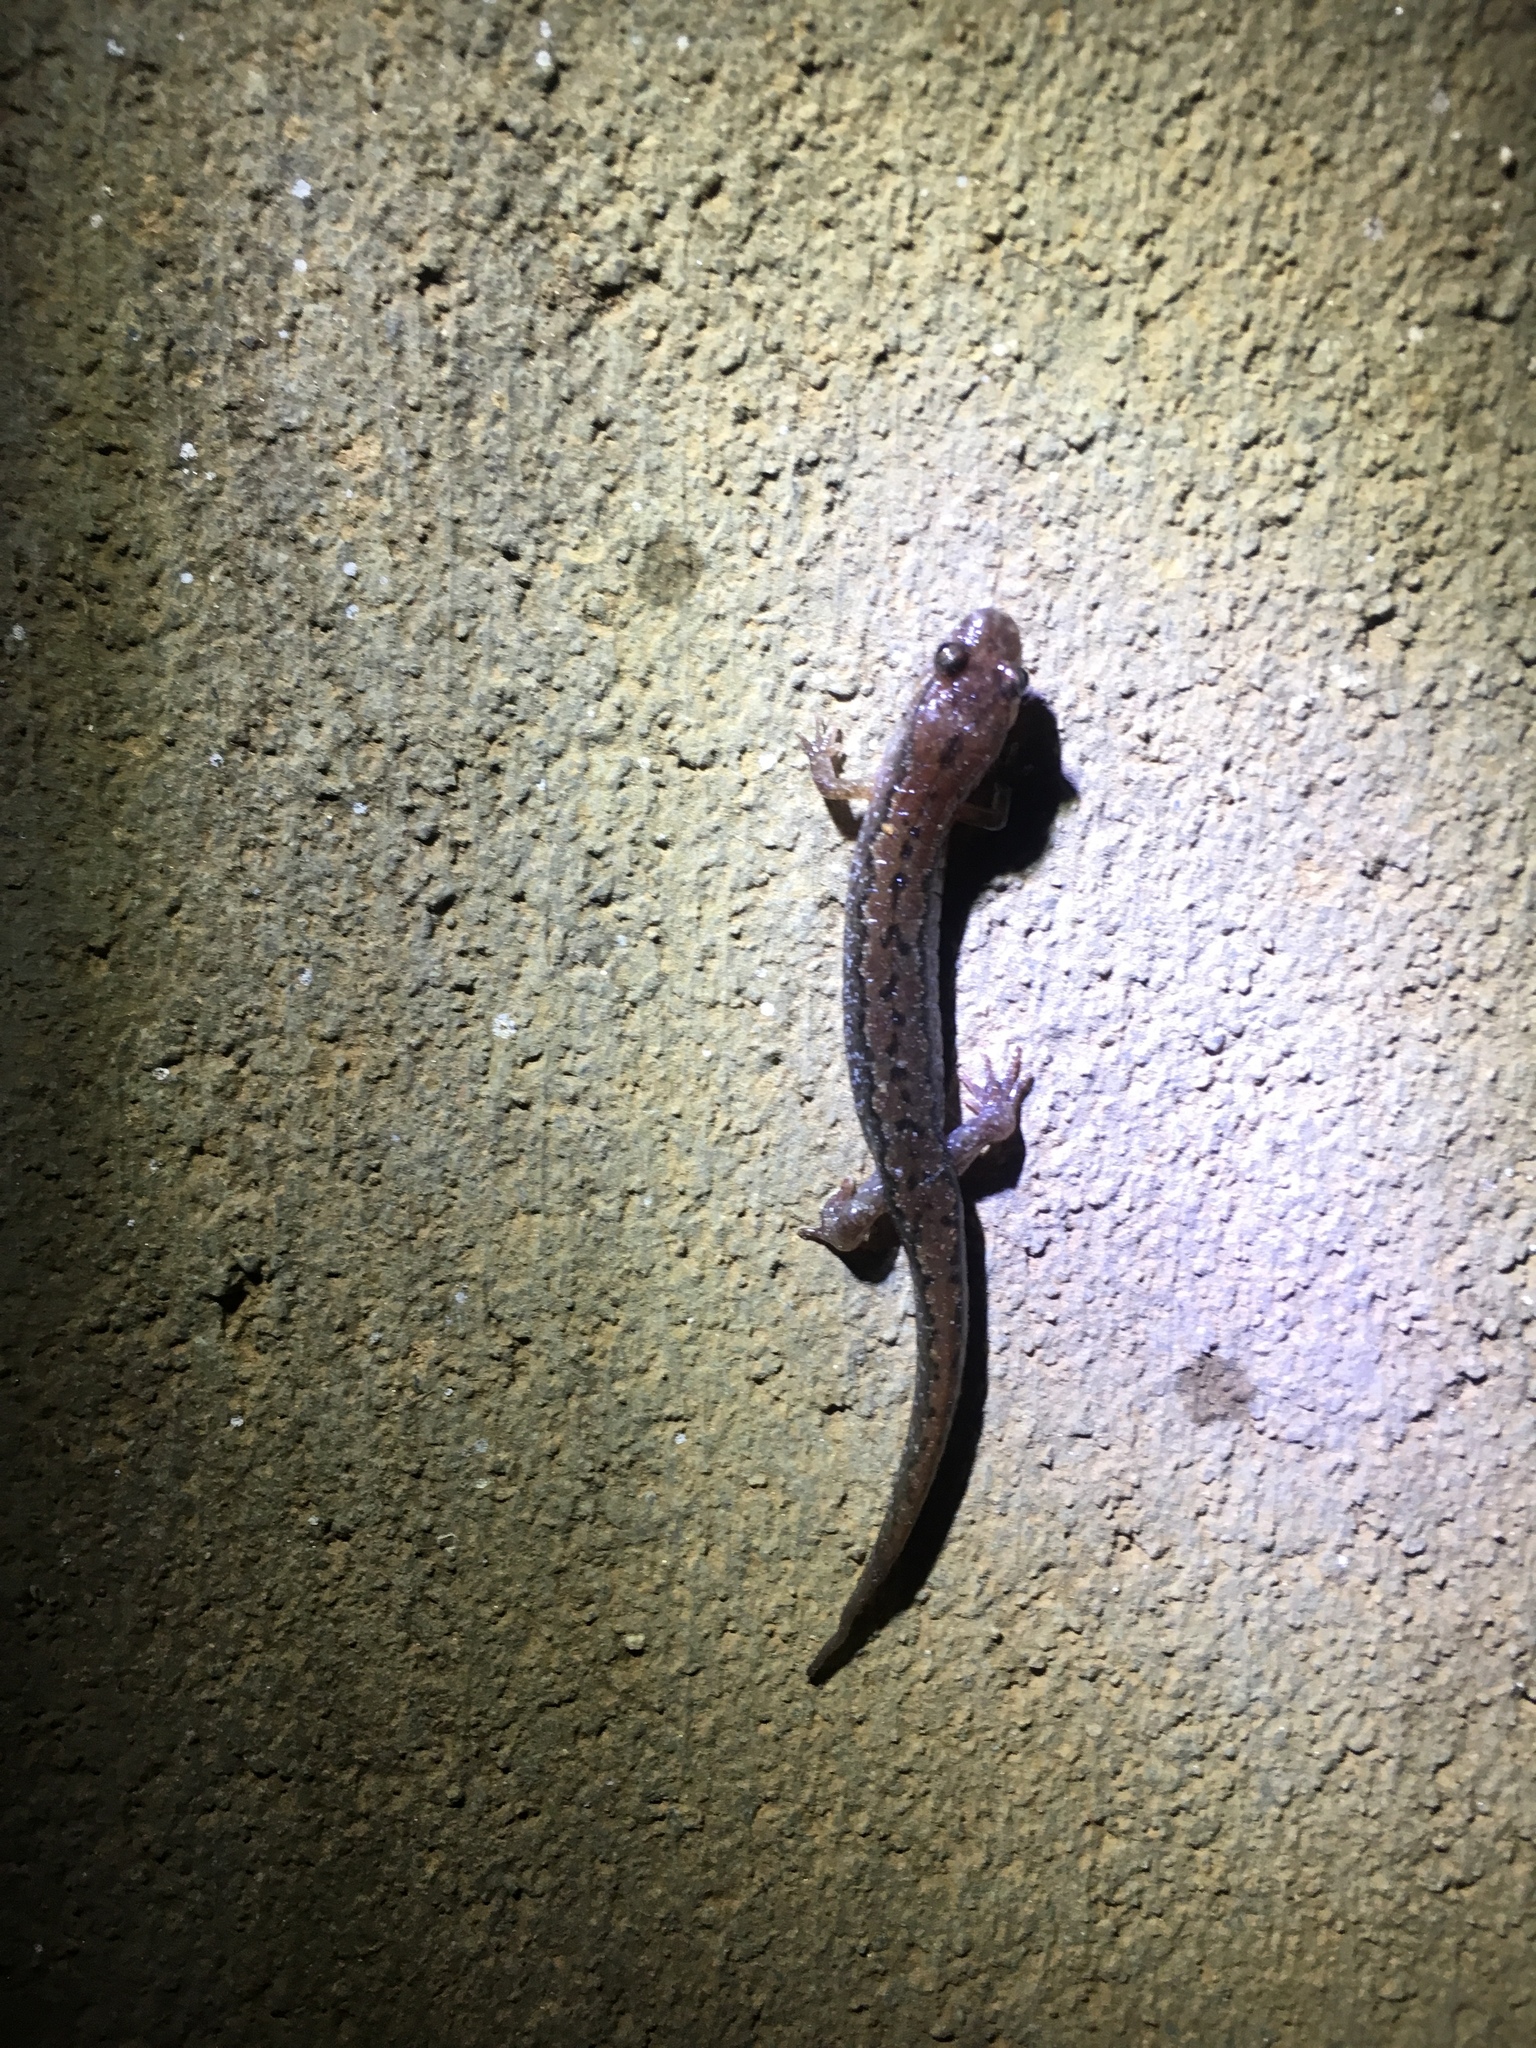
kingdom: Animalia
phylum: Chordata
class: Amphibia
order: Caudata
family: Plethodontidae
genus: Desmognathus
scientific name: Desmognathus conanti
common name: Spotted dusky salamander
